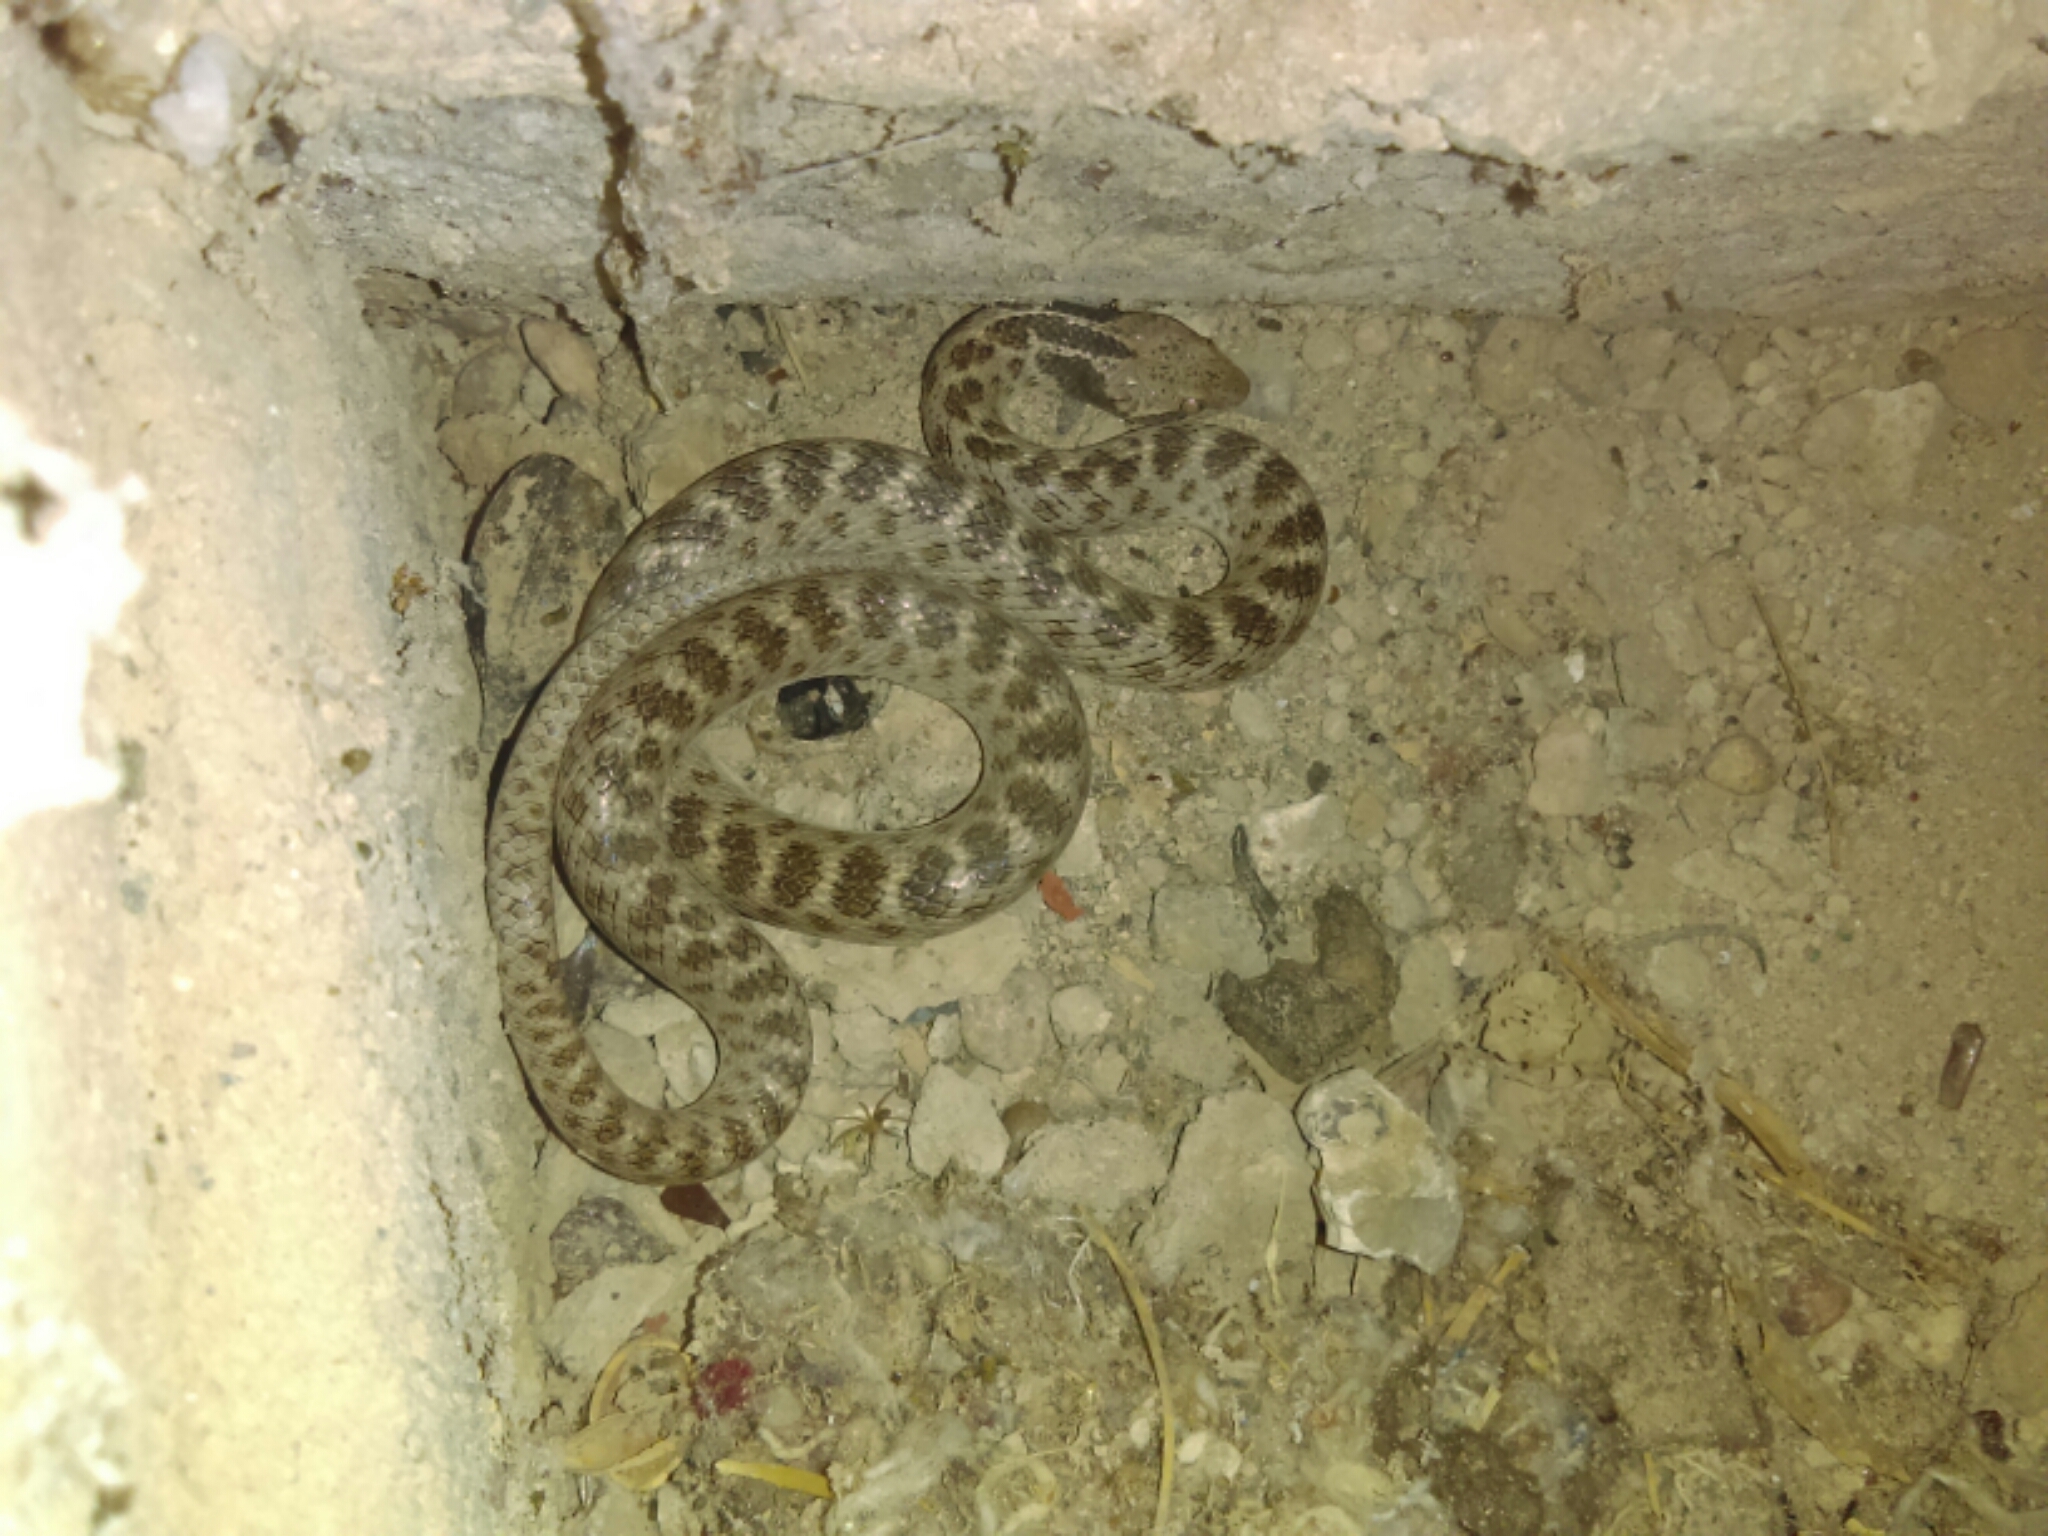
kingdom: Animalia
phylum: Chordata
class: Squamata
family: Colubridae
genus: Hypsiglena
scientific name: Hypsiglena jani
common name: Chihuahuan nightsnake
